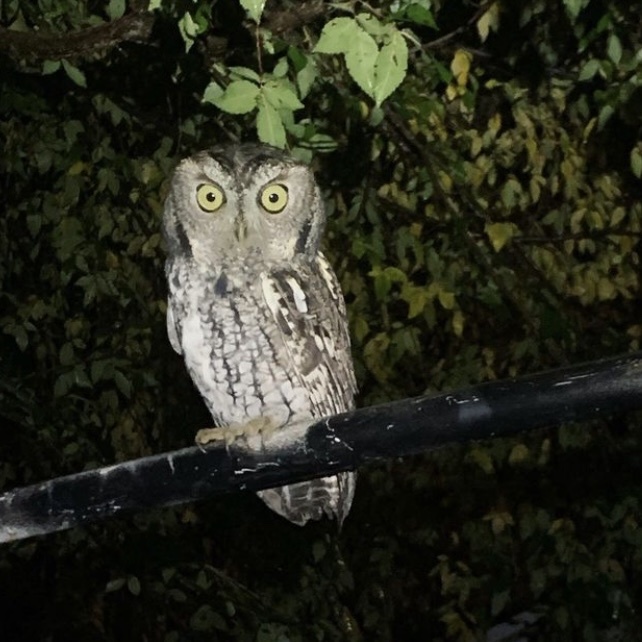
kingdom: Animalia
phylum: Chordata
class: Aves
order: Strigiformes
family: Strigidae
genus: Megascops
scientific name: Megascops asio
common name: Eastern screech-owl
